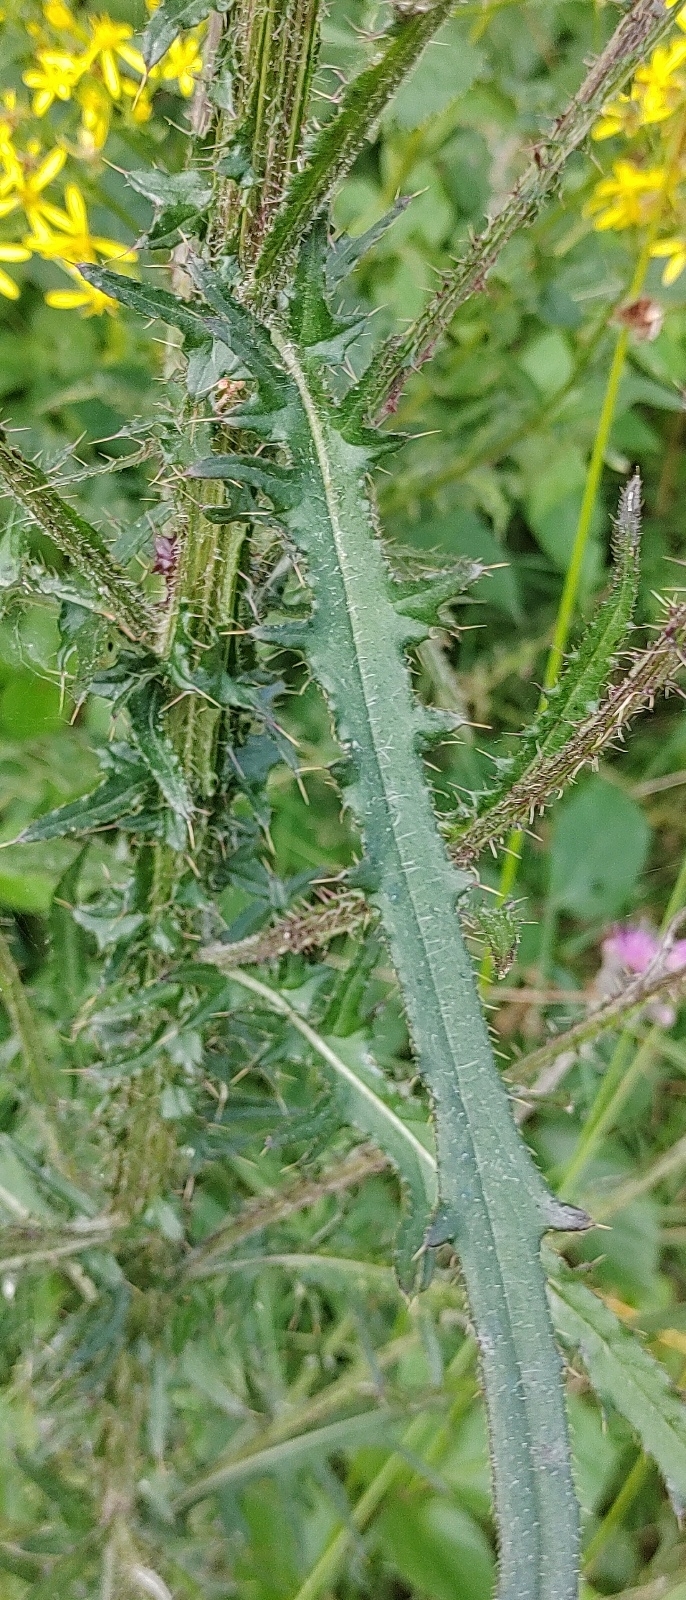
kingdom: Plantae
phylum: Tracheophyta
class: Magnoliopsida
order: Asterales
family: Asteraceae
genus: Cirsium
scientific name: Cirsium palustre
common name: Marsh thistle
